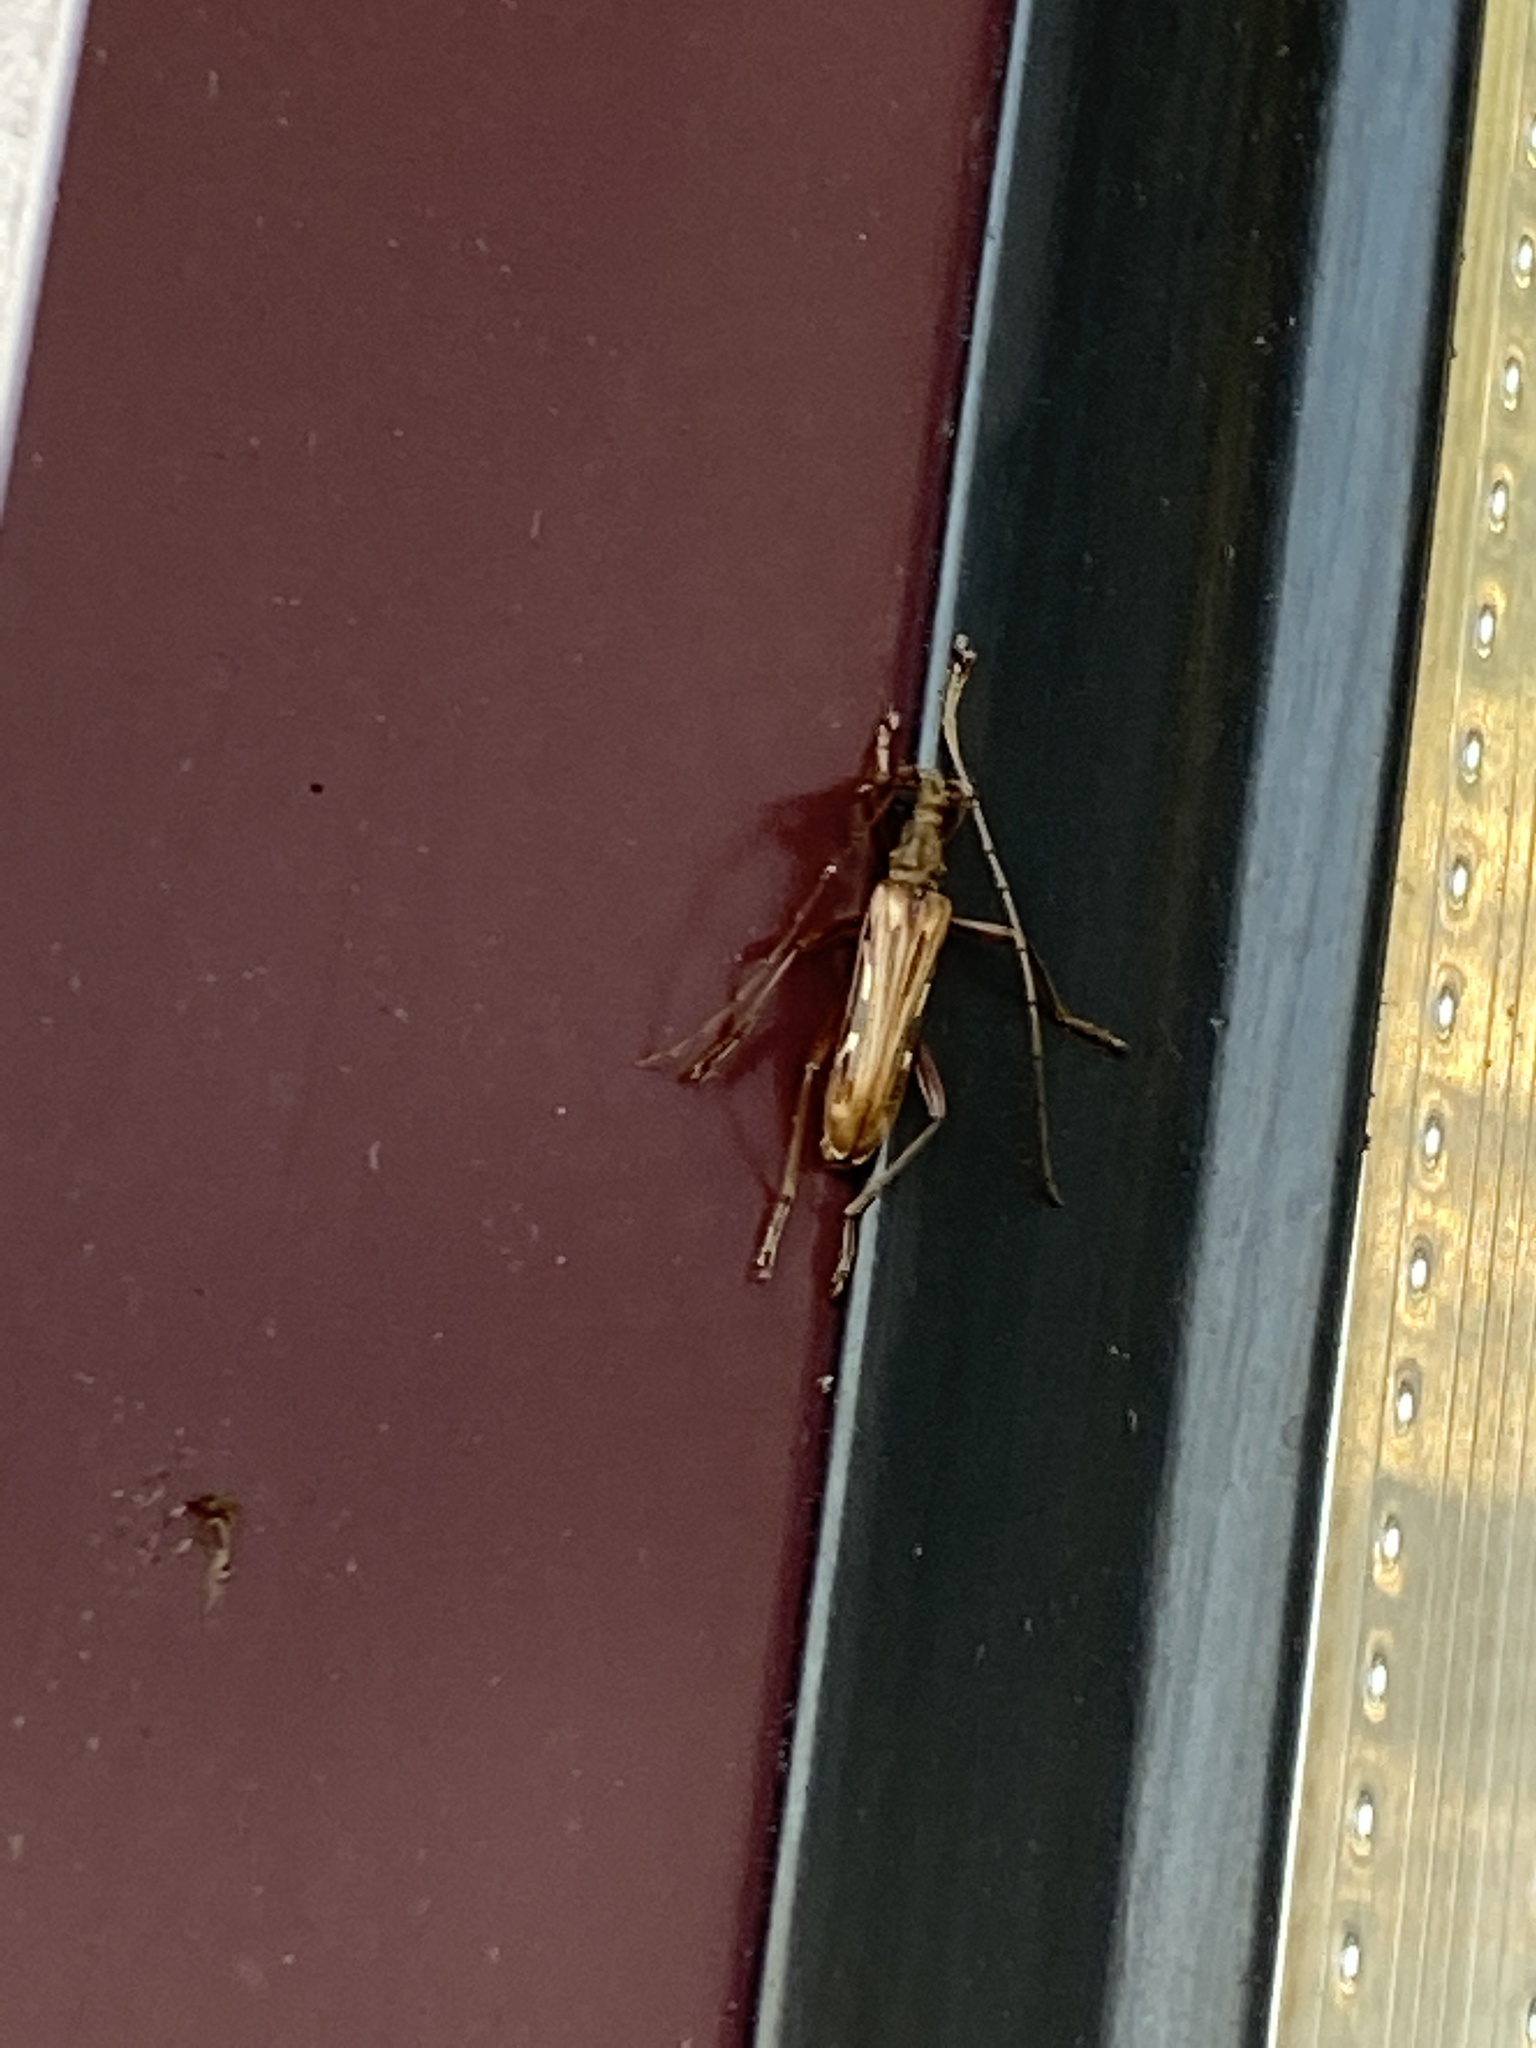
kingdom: Animalia
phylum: Arthropoda
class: Insecta
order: Coleoptera
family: Cerambycidae
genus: Leptorhabdium
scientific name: Leptorhabdium pictum
